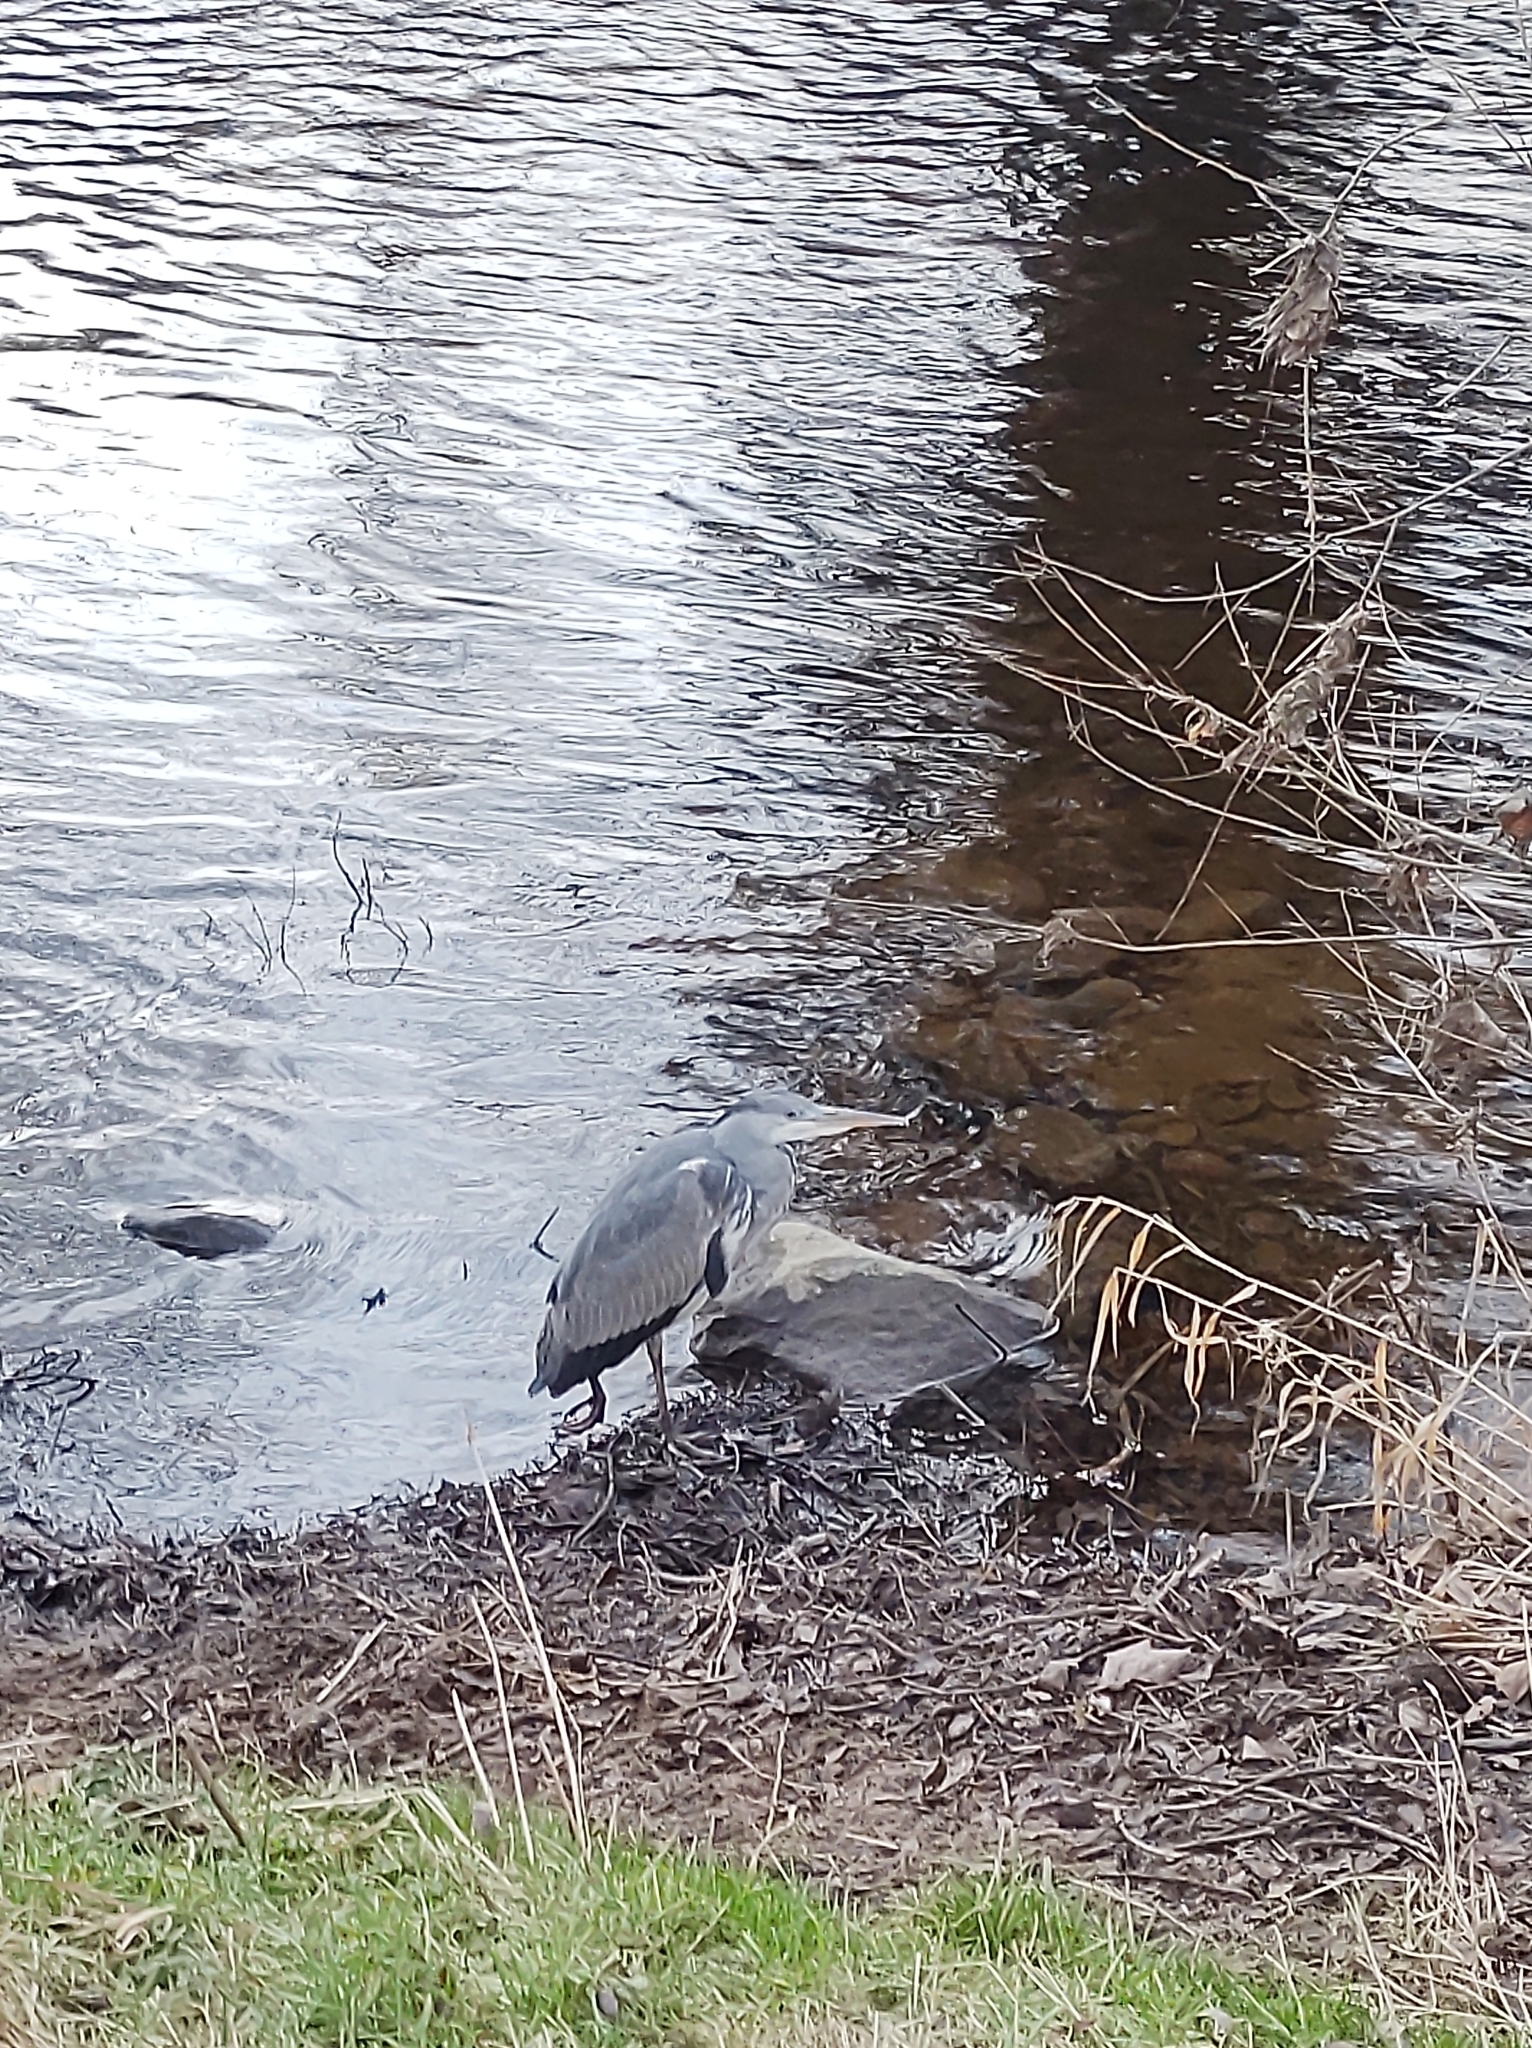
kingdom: Animalia
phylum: Chordata
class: Aves
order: Pelecaniformes
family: Ardeidae
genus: Ardea
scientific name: Ardea cinerea
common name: Grey heron
